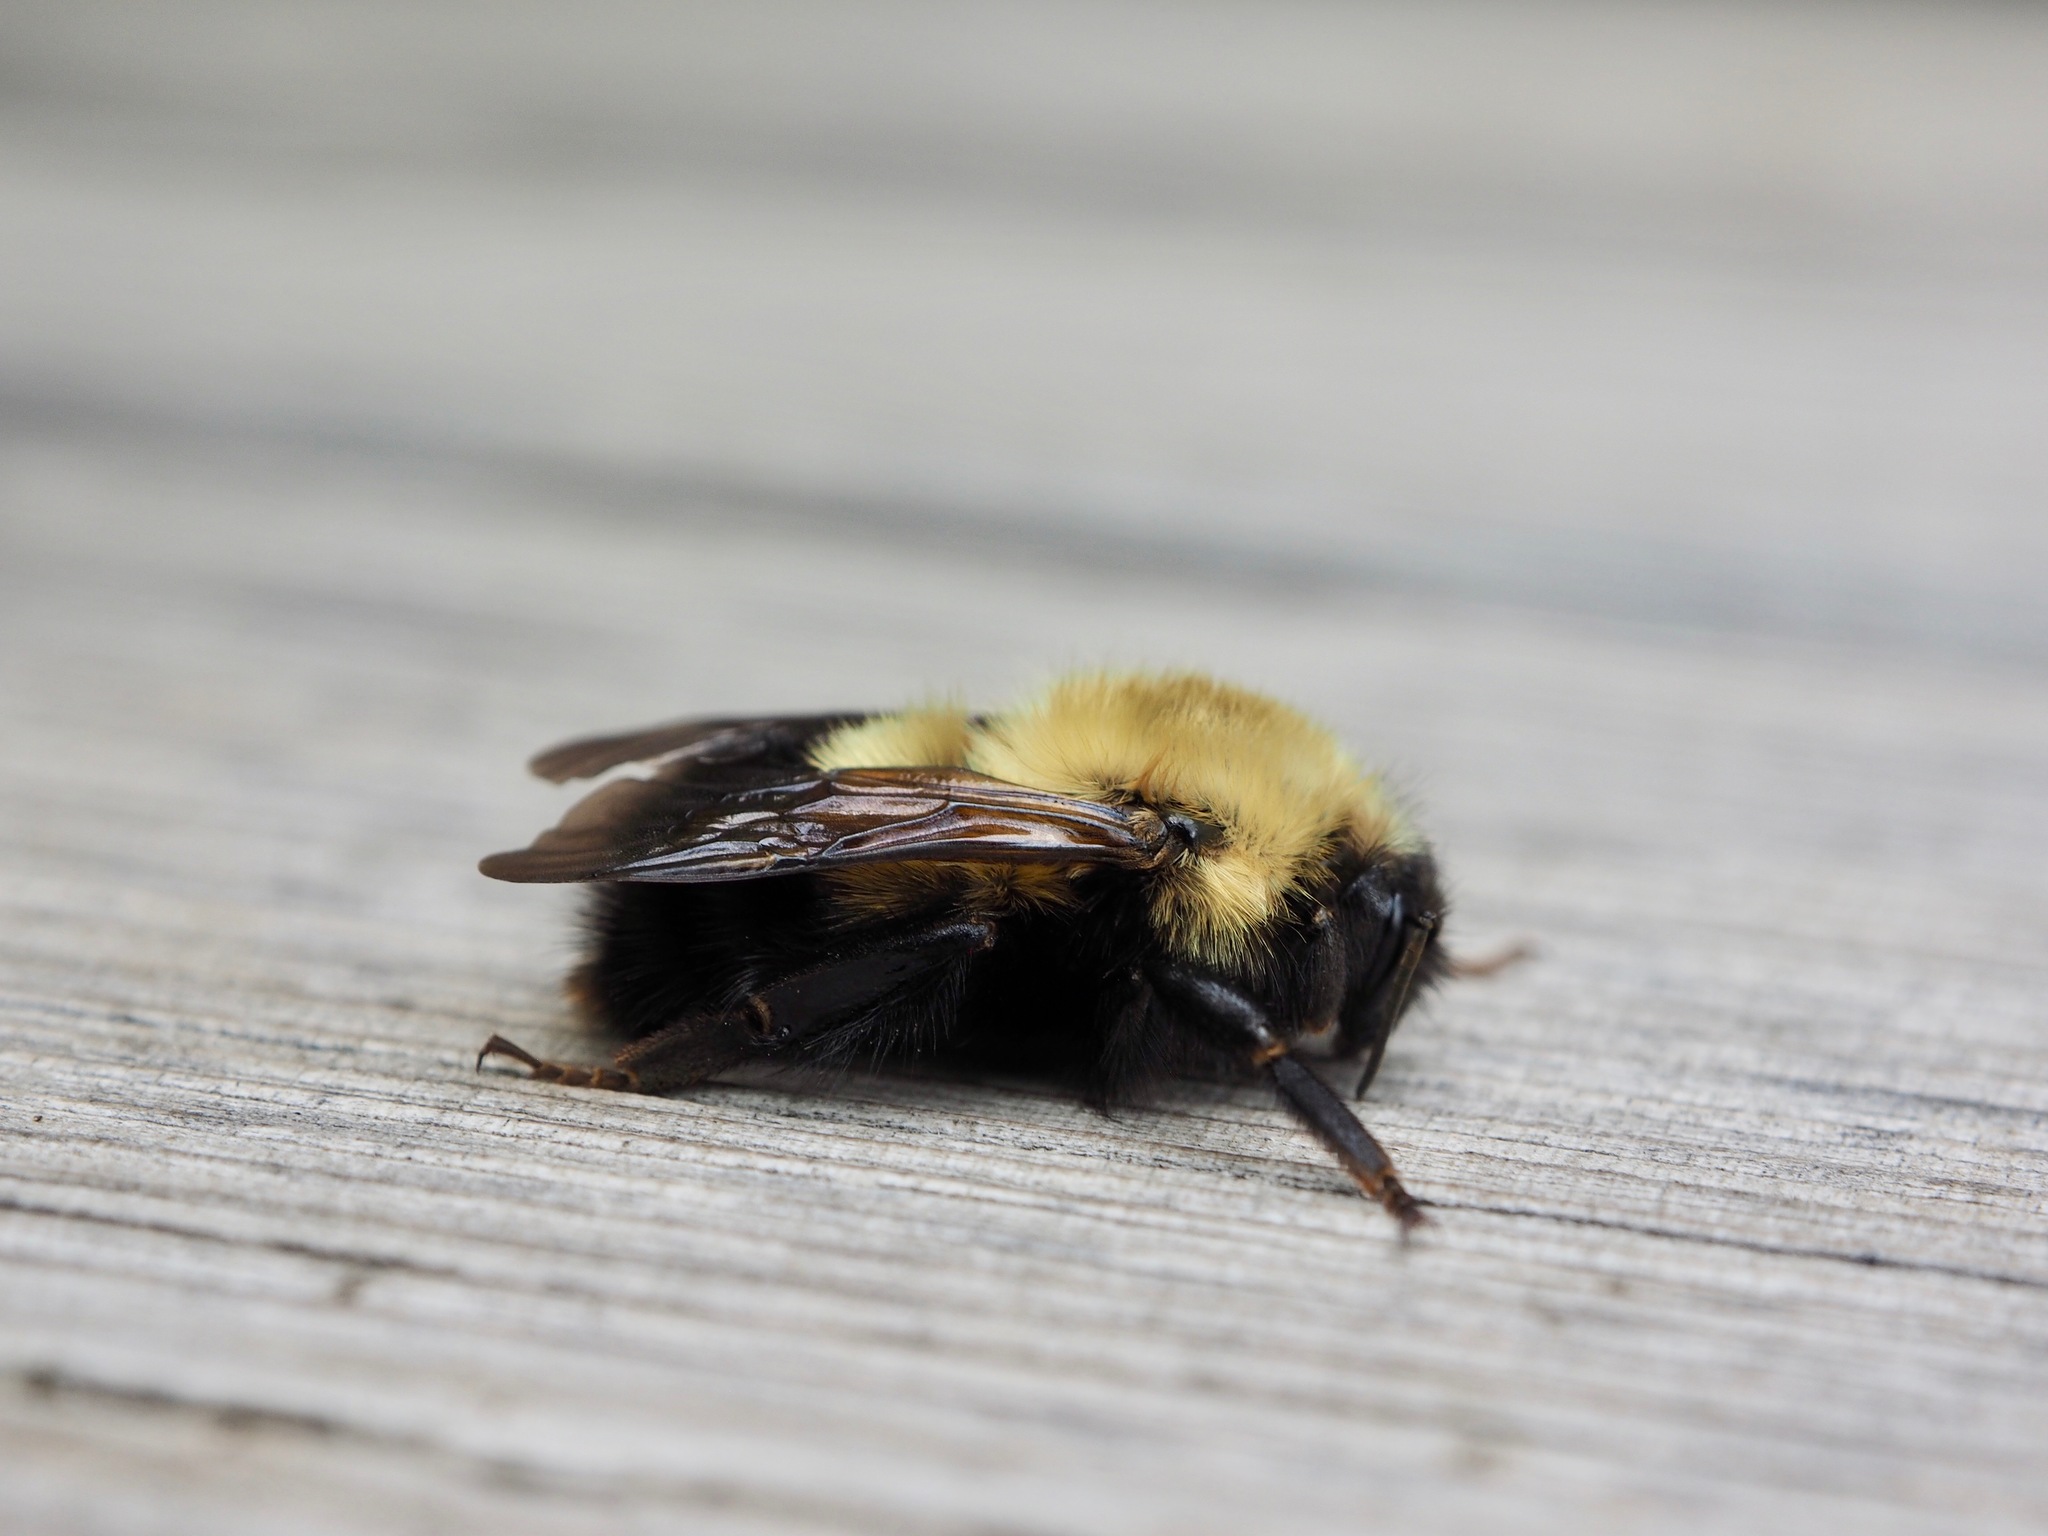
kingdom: Animalia
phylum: Arthropoda
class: Insecta
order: Hymenoptera
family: Apidae
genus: Bombus
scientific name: Bombus perplexus
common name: Confusing bumble bee
